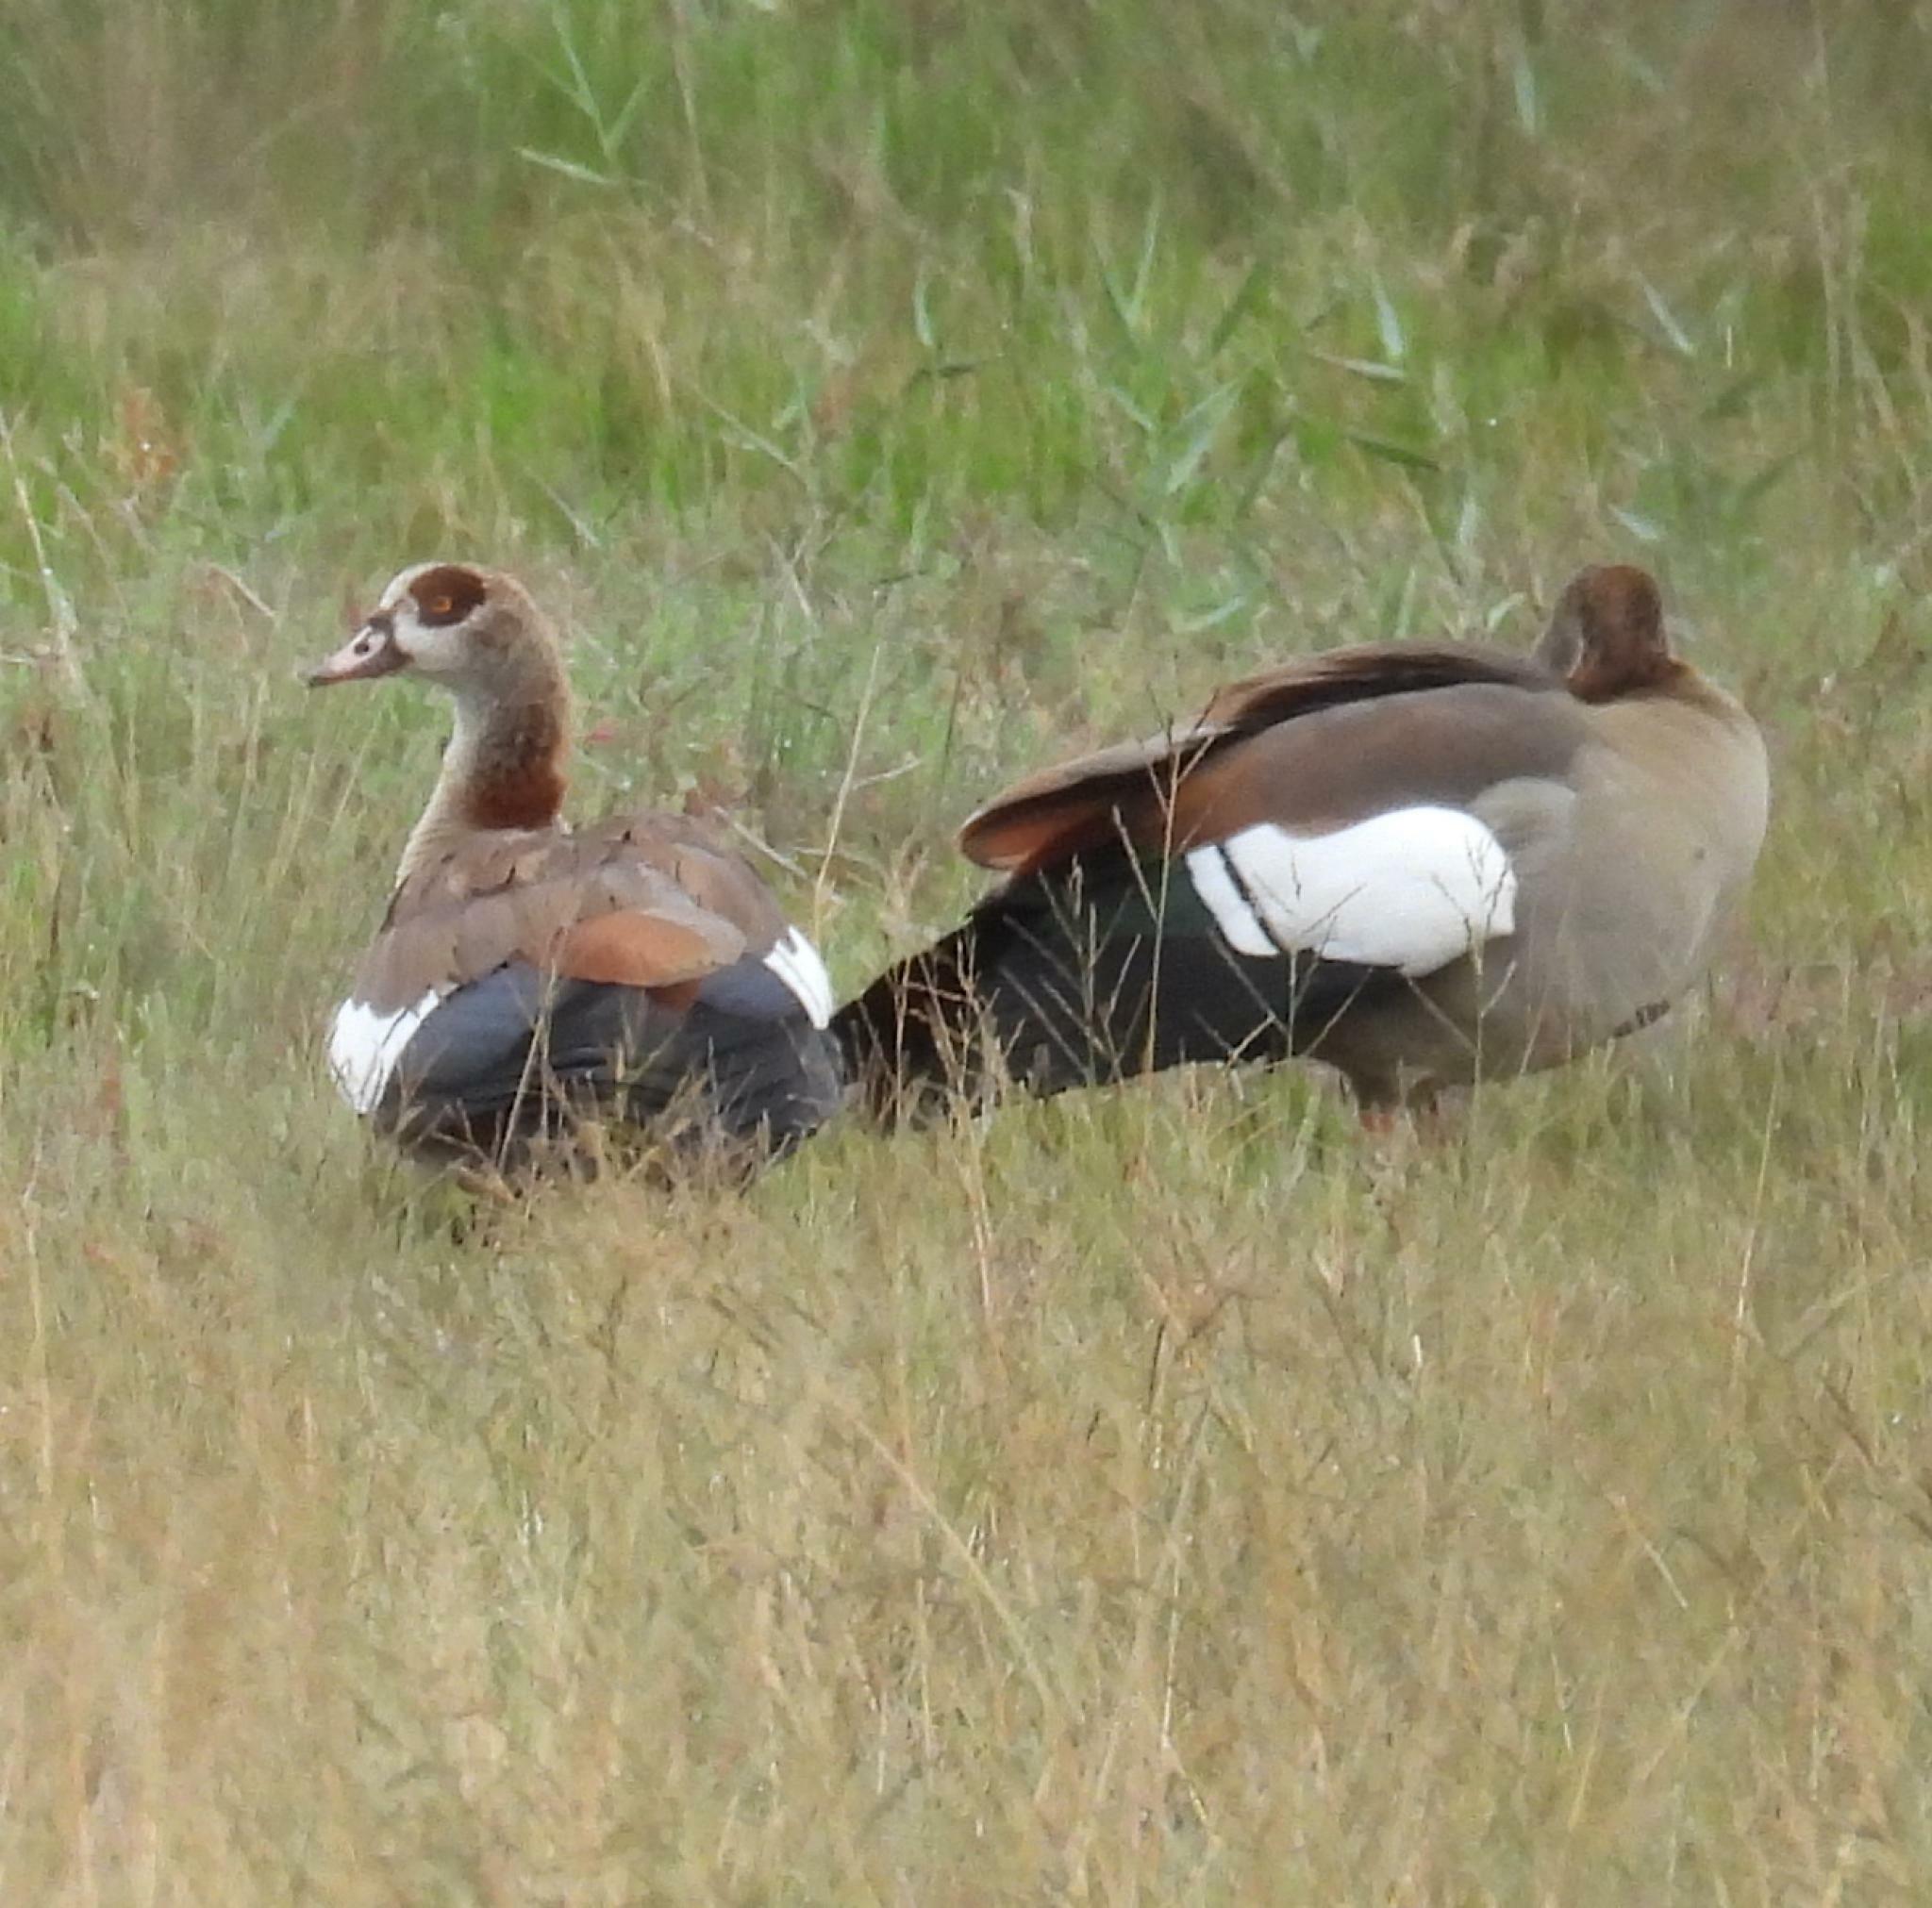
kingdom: Animalia
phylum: Chordata
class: Aves
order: Anseriformes
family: Anatidae
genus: Alopochen
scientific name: Alopochen aegyptiaca
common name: Egyptian goose
